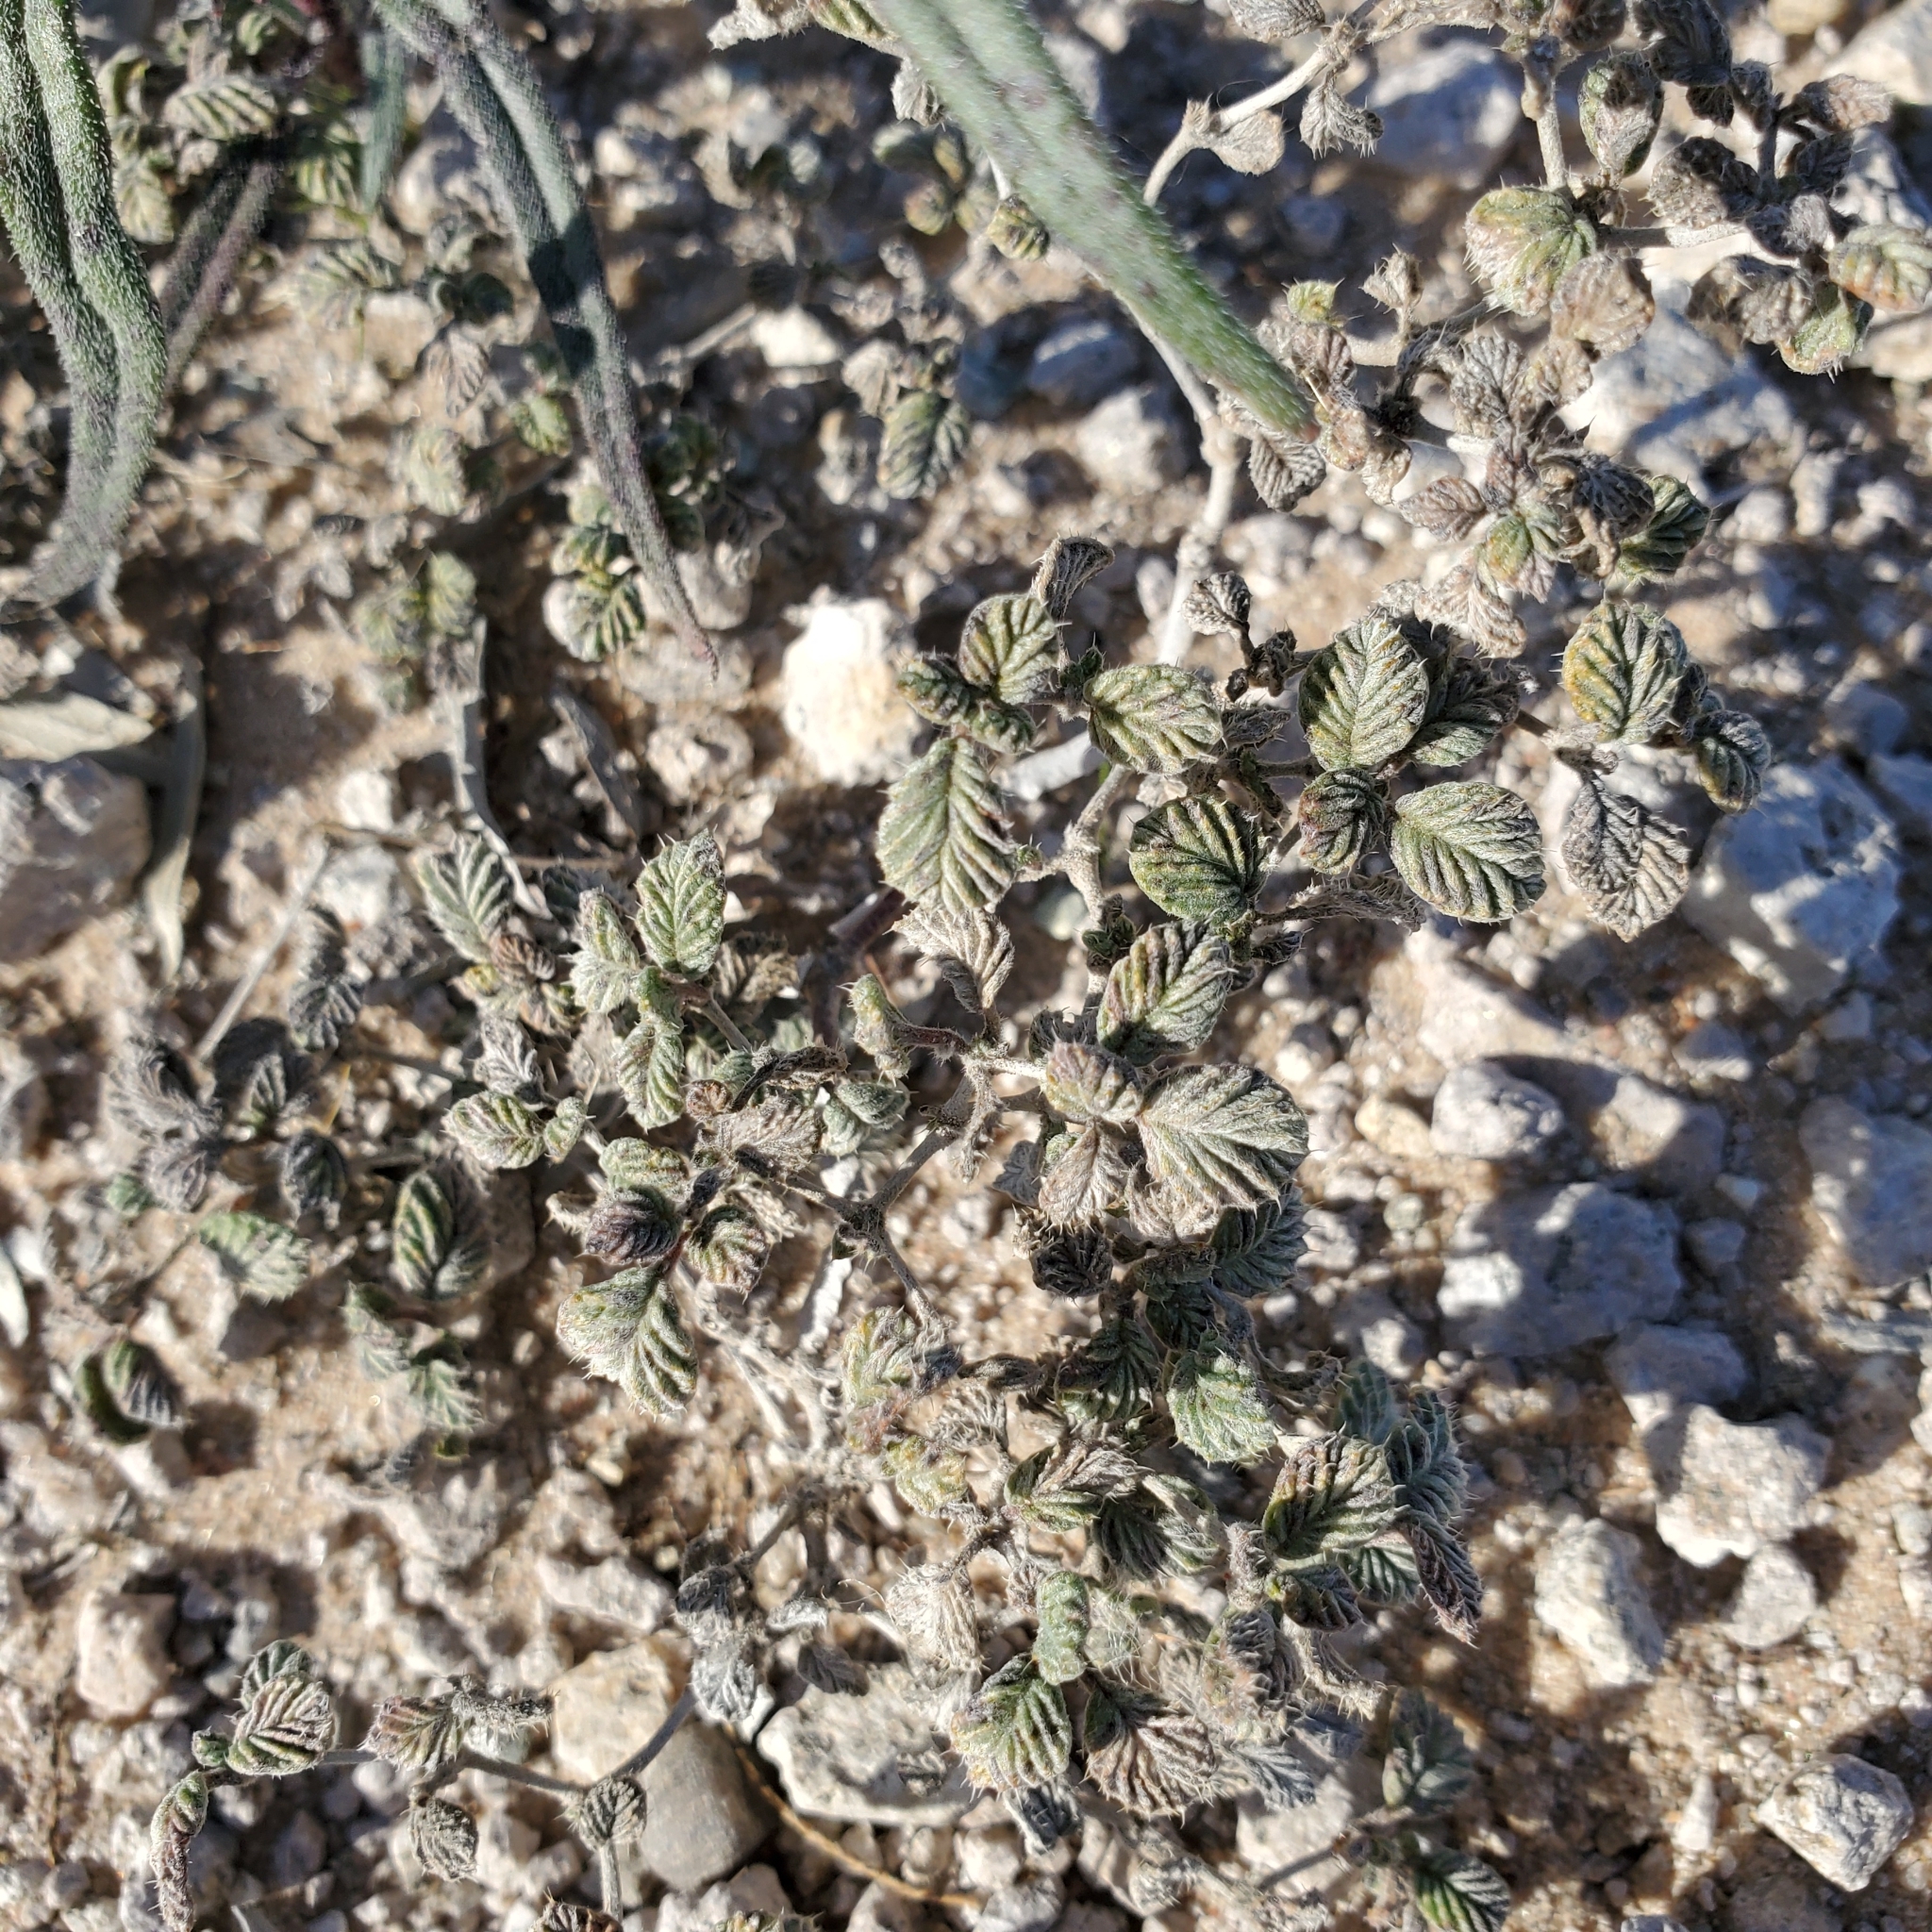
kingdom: Plantae
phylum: Tracheophyta
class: Magnoliopsida
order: Boraginales
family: Ehretiaceae
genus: Tiquilia
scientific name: Tiquilia plicata
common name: Fan-leaf tiquilia
